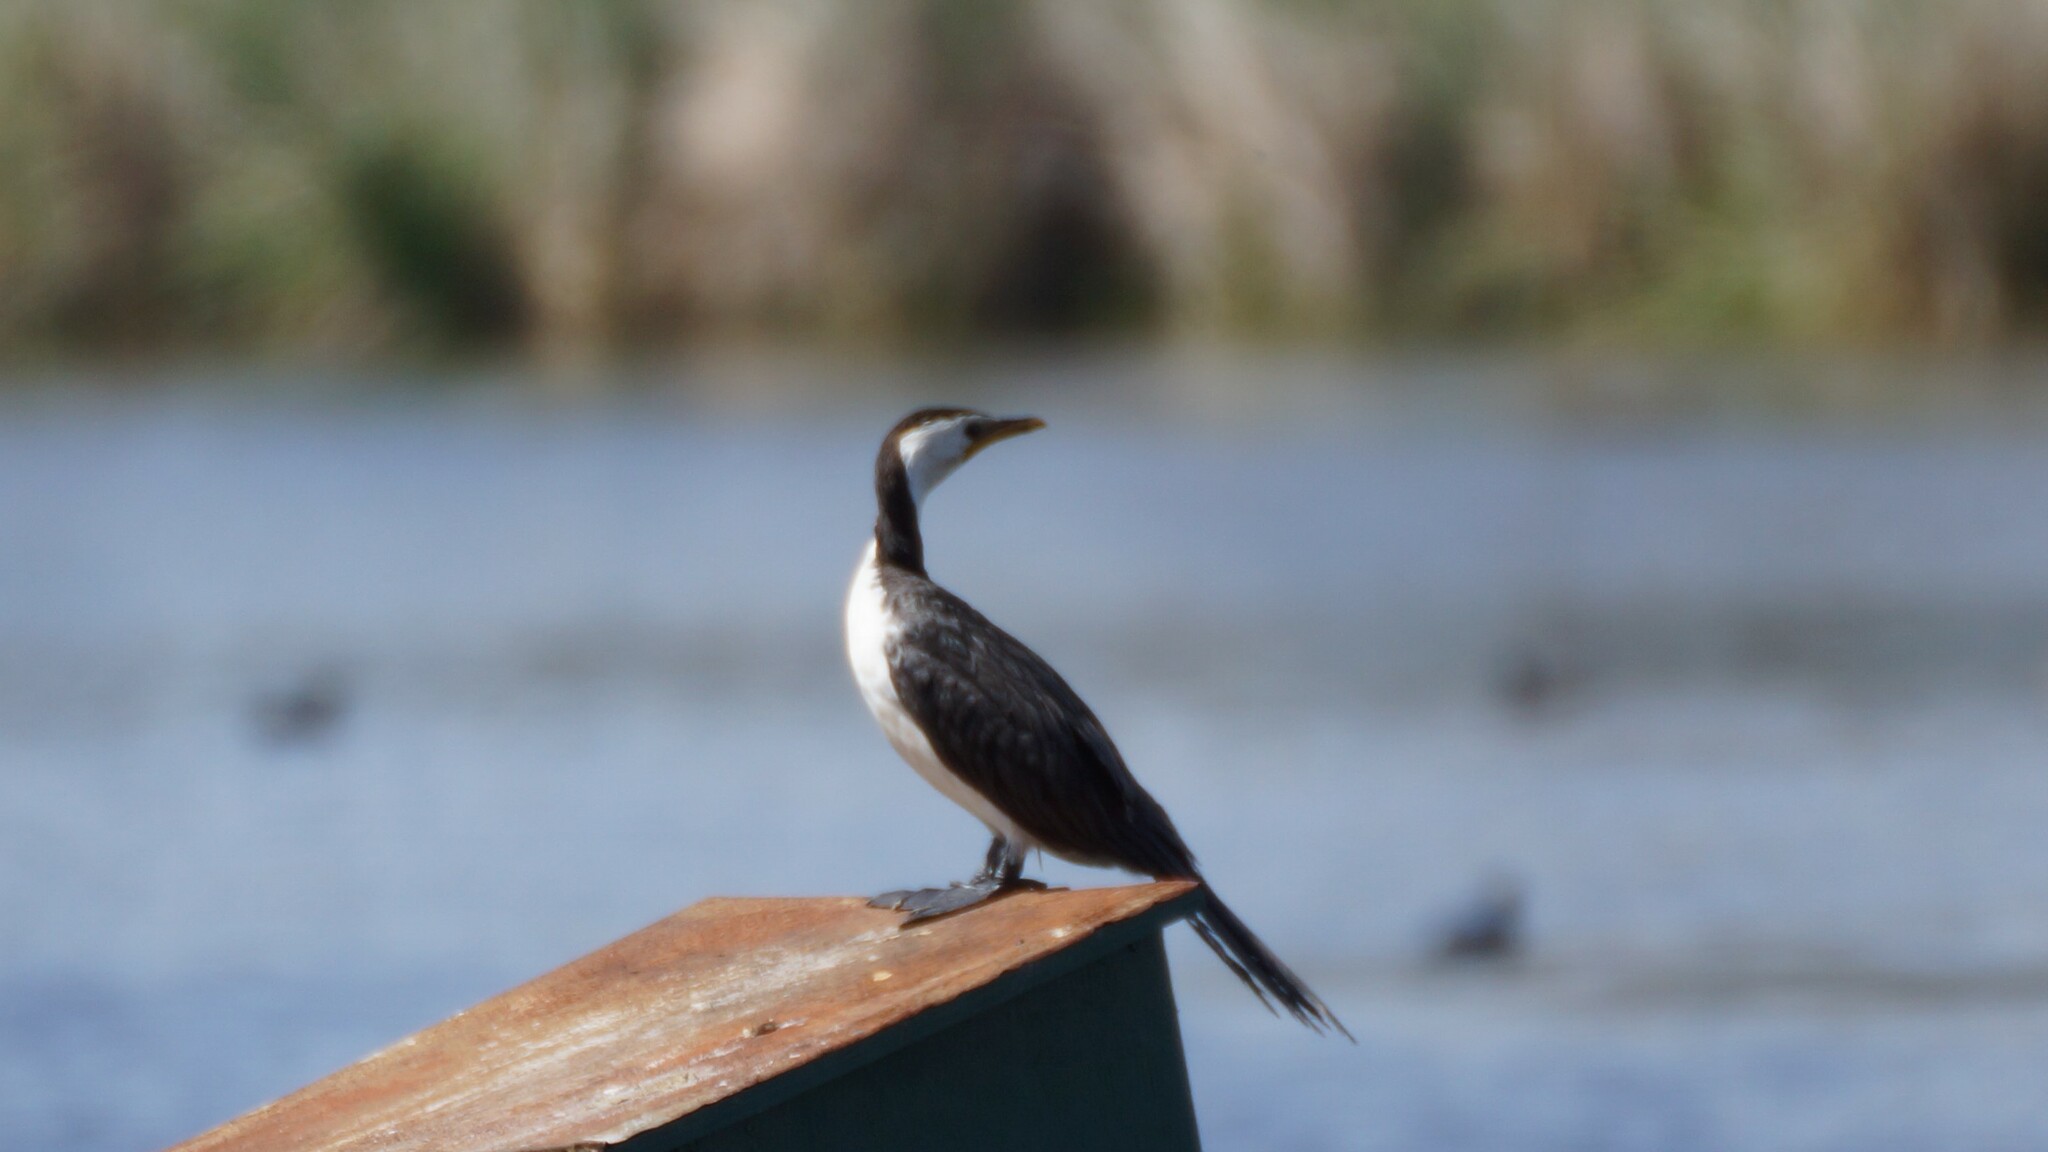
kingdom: Animalia
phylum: Chordata
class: Aves
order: Suliformes
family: Phalacrocoracidae
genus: Microcarbo
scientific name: Microcarbo melanoleucos
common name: Little pied cormorant
